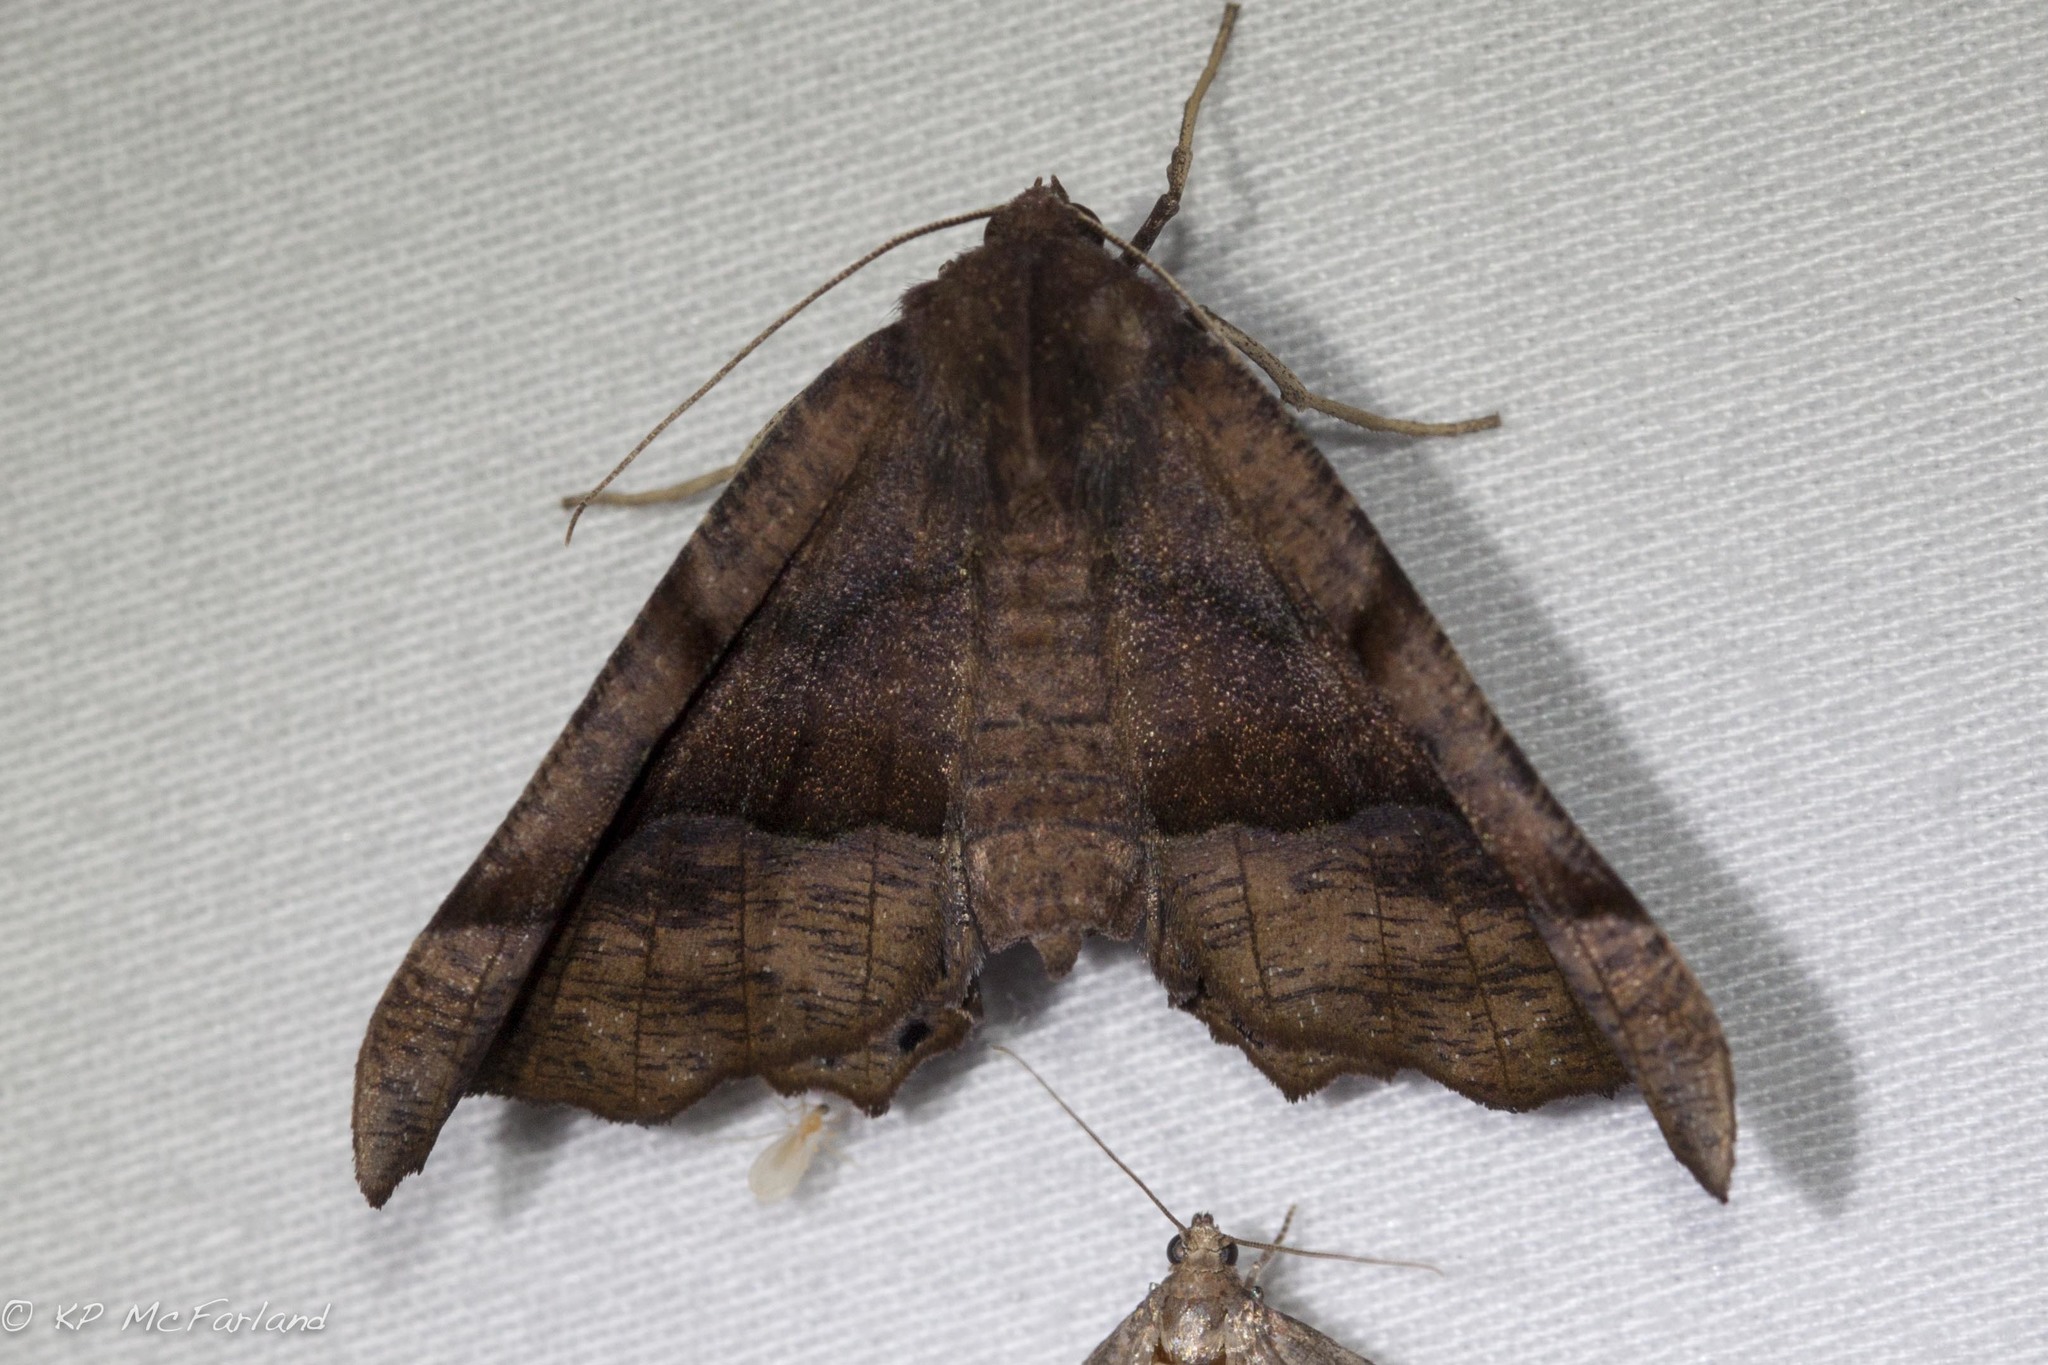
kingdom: Animalia
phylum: Arthropoda
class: Insecta
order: Lepidoptera
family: Geometridae
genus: Pero
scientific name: Pero honestaria
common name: Honest pero
